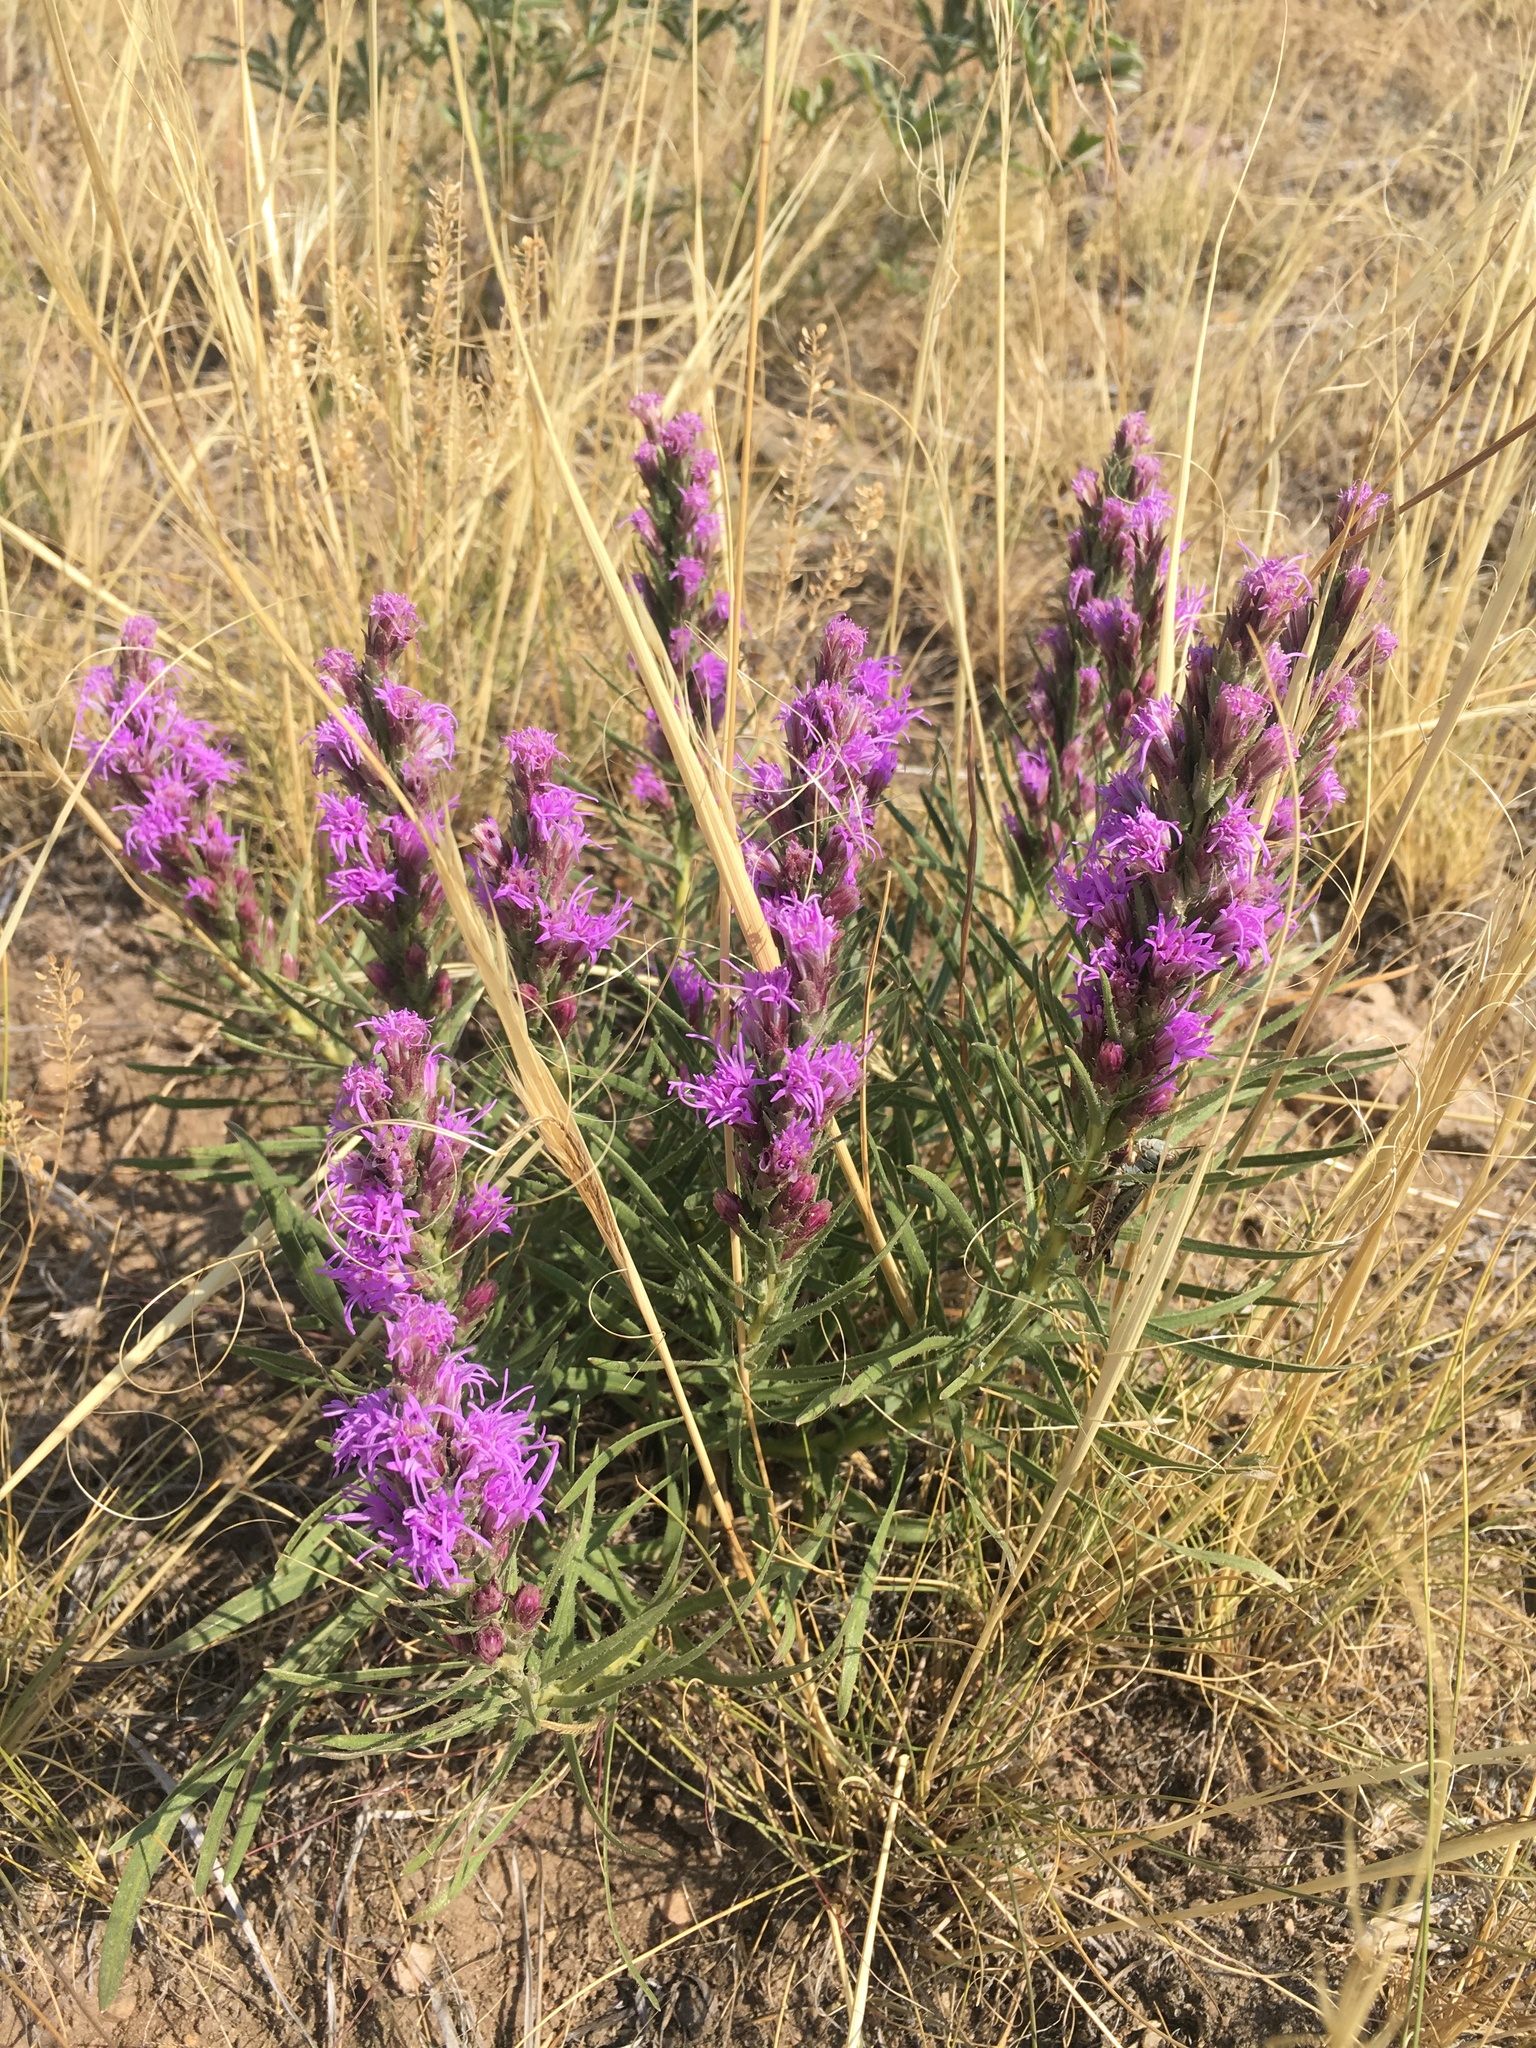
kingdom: Plantae
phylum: Tracheophyta
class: Magnoliopsida
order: Asterales
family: Asteraceae
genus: Liatris
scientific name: Liatris punctata
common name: Dotted gayfeather
